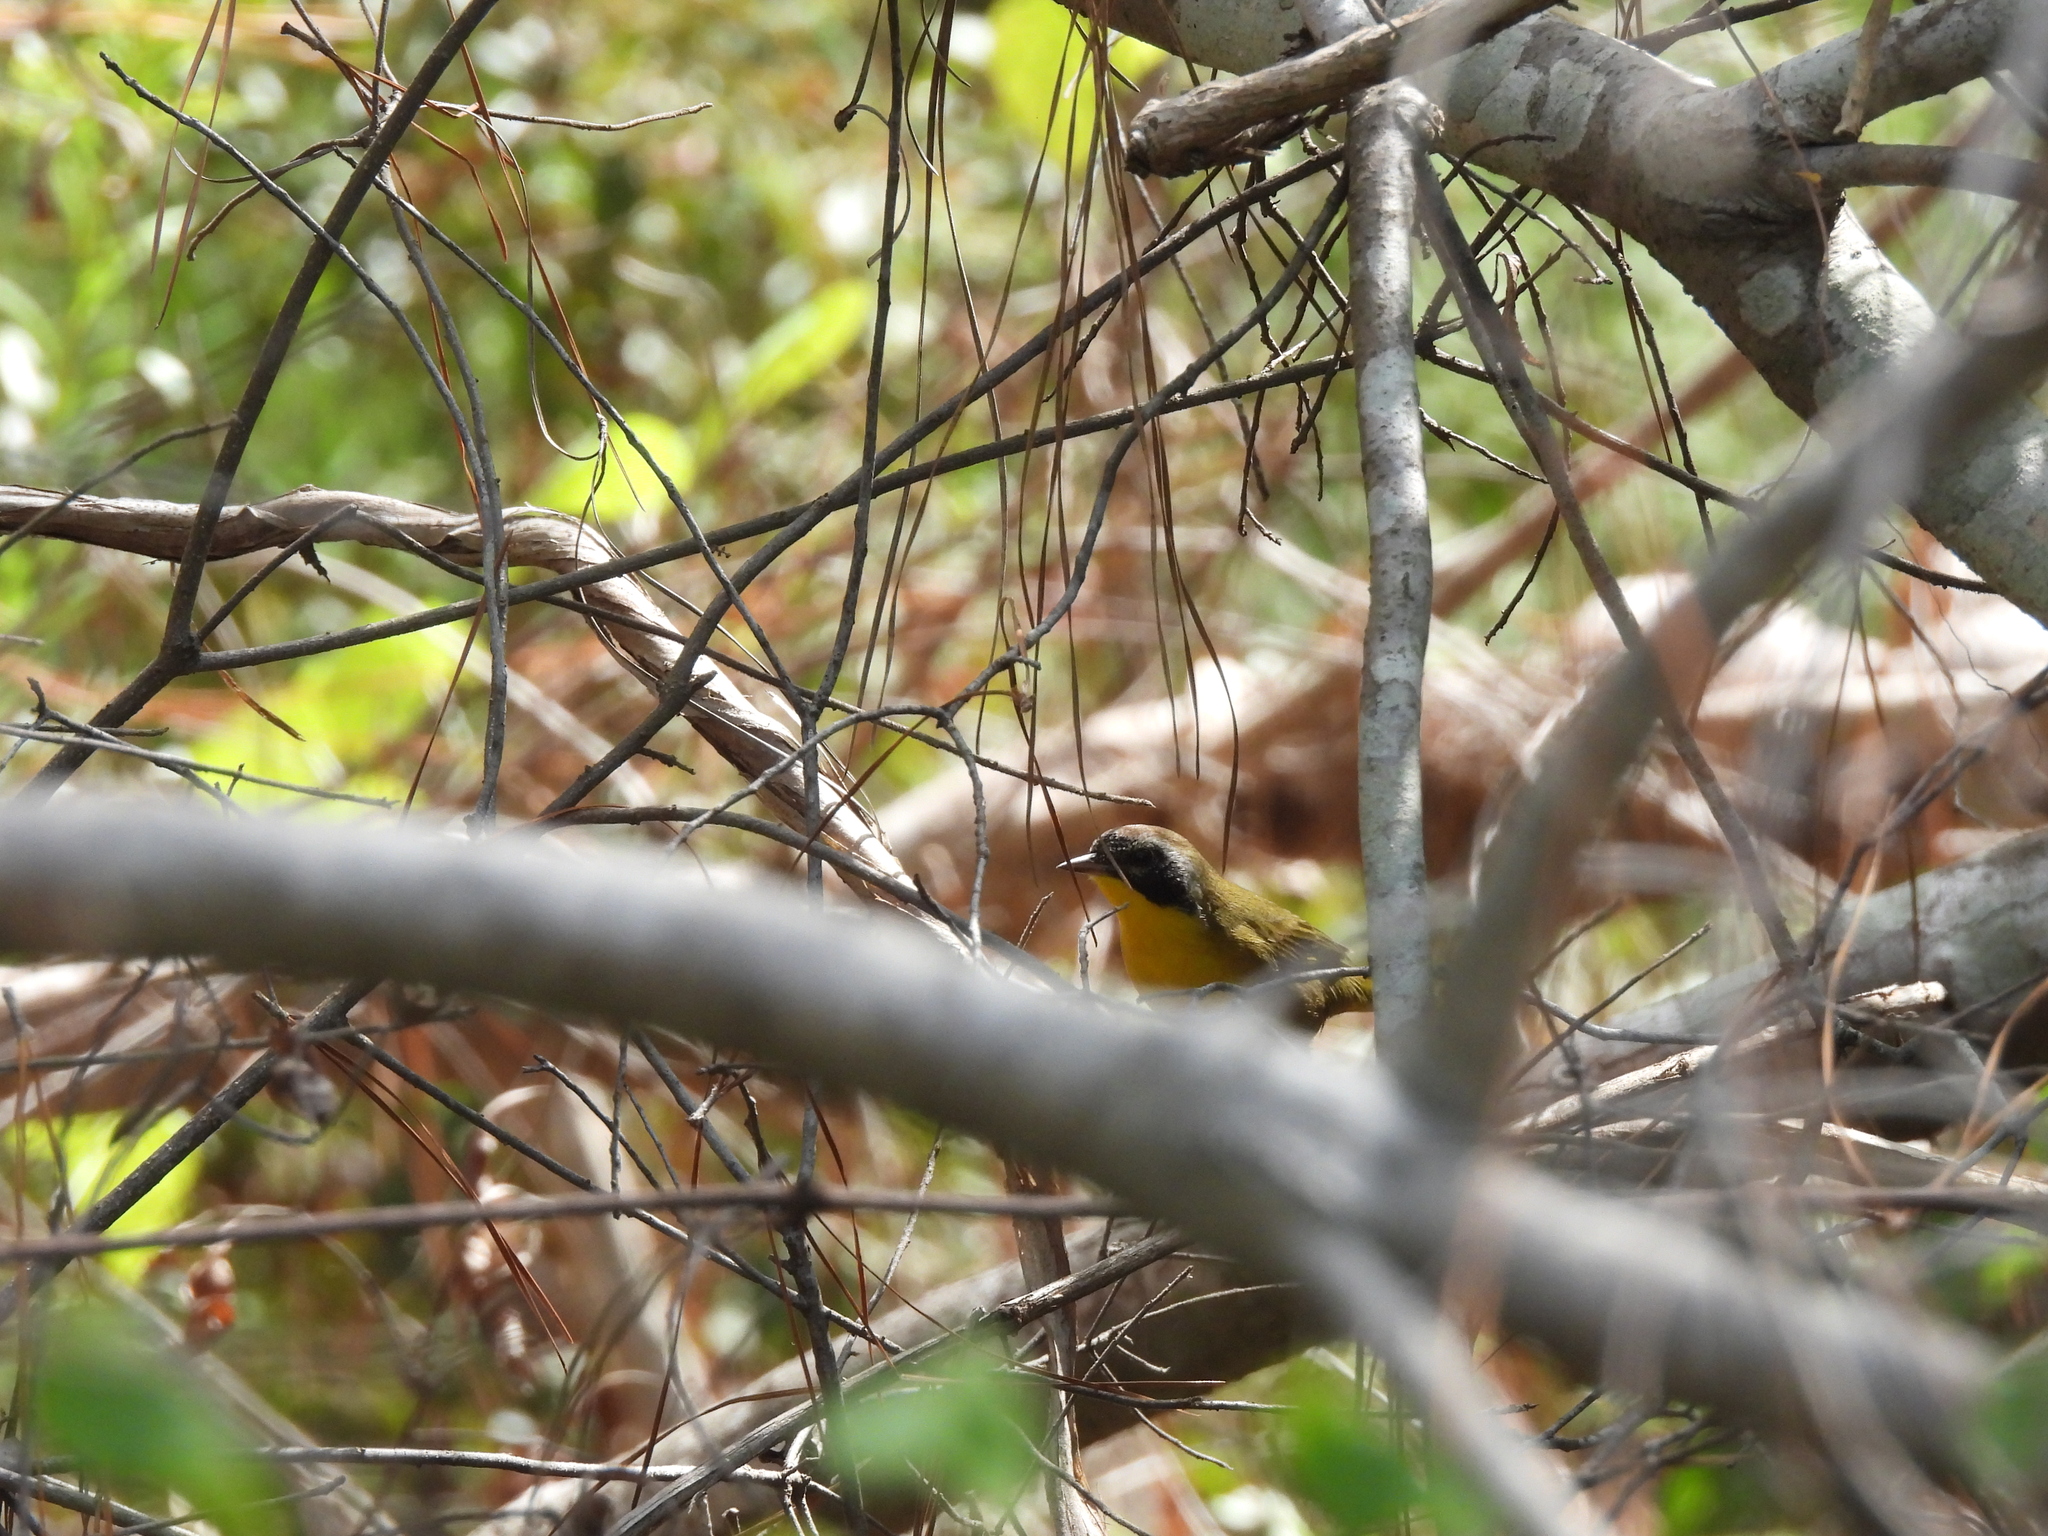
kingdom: Animalia
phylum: Chordata
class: Aves
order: Passeriformes
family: Parulidae
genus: Geothlypis
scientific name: Geothlypis trichas
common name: Common yellowthroat
